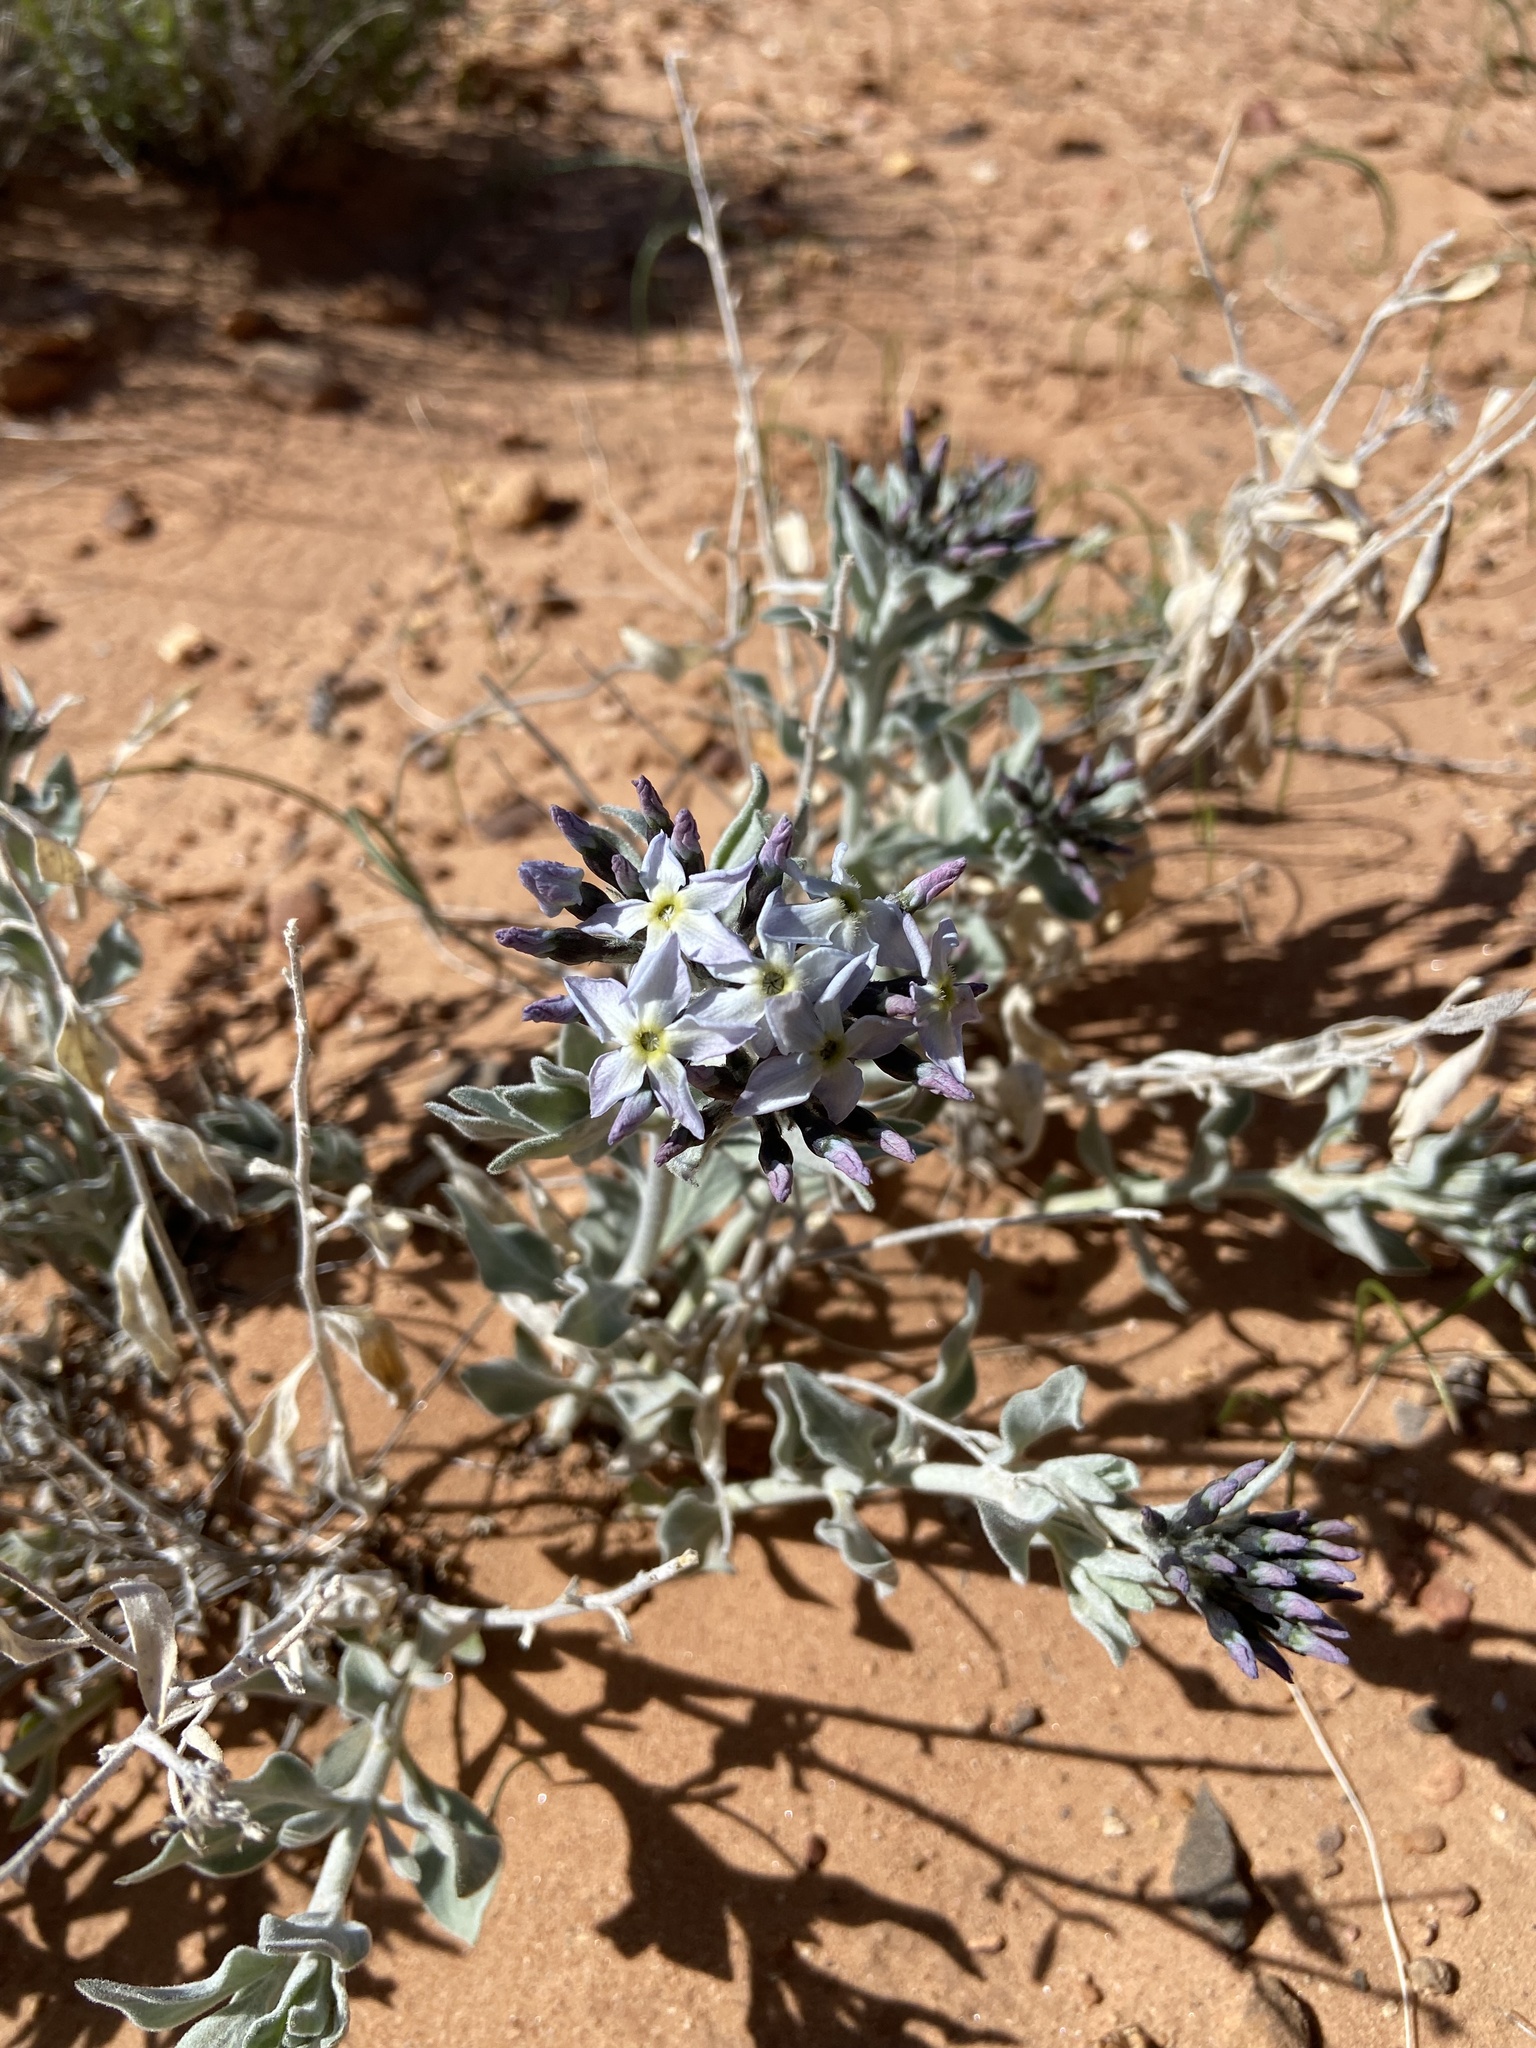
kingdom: Plantae
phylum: Tracheophyta
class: Magnoliopsida
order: Gentianales
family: Apocynaceae
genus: Amsonia
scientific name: Amsonia tomentosa
